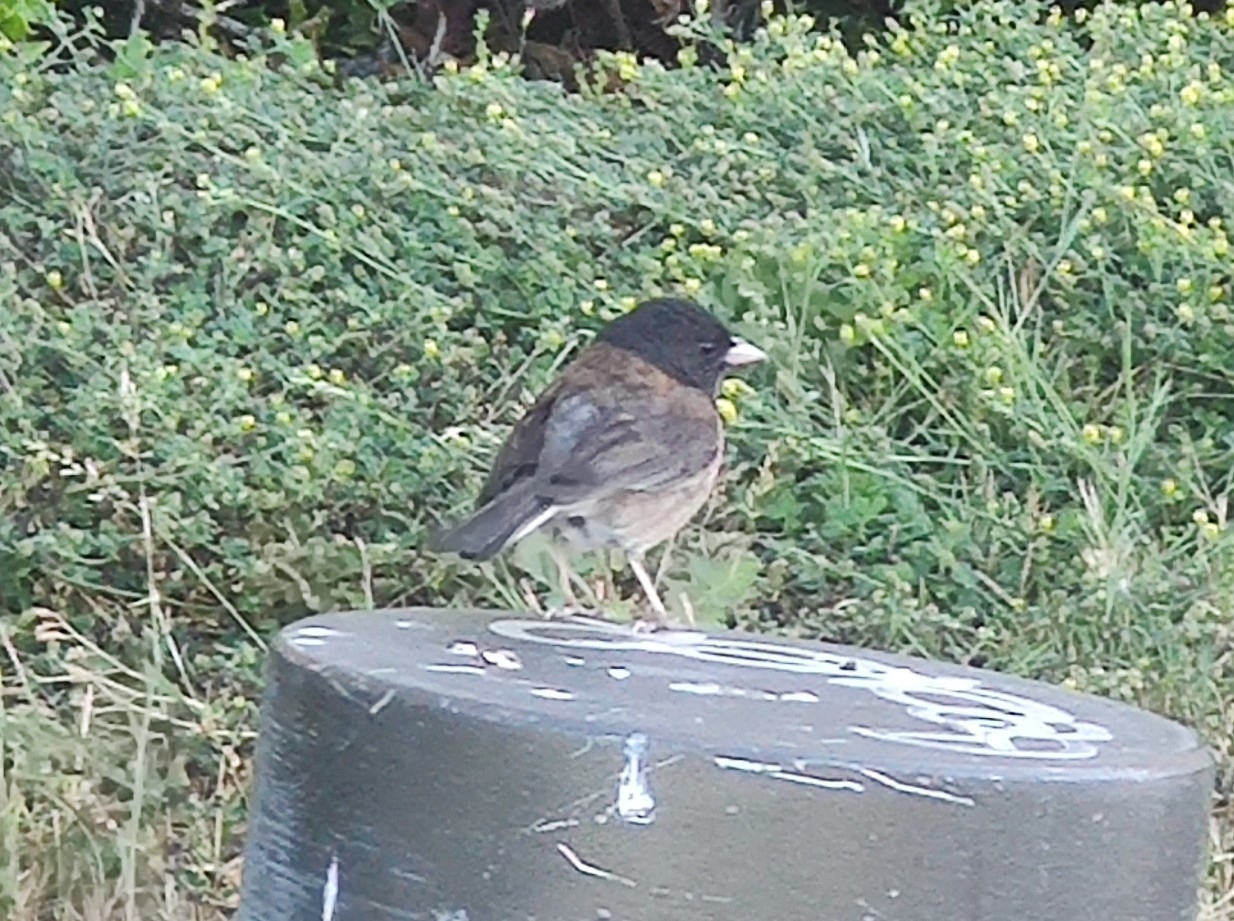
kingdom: Animalia
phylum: Chordata
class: Aves
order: Passeriformes
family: Passerellidae
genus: Junco
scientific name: Junco hyemalis
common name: Dark-eyed junco
